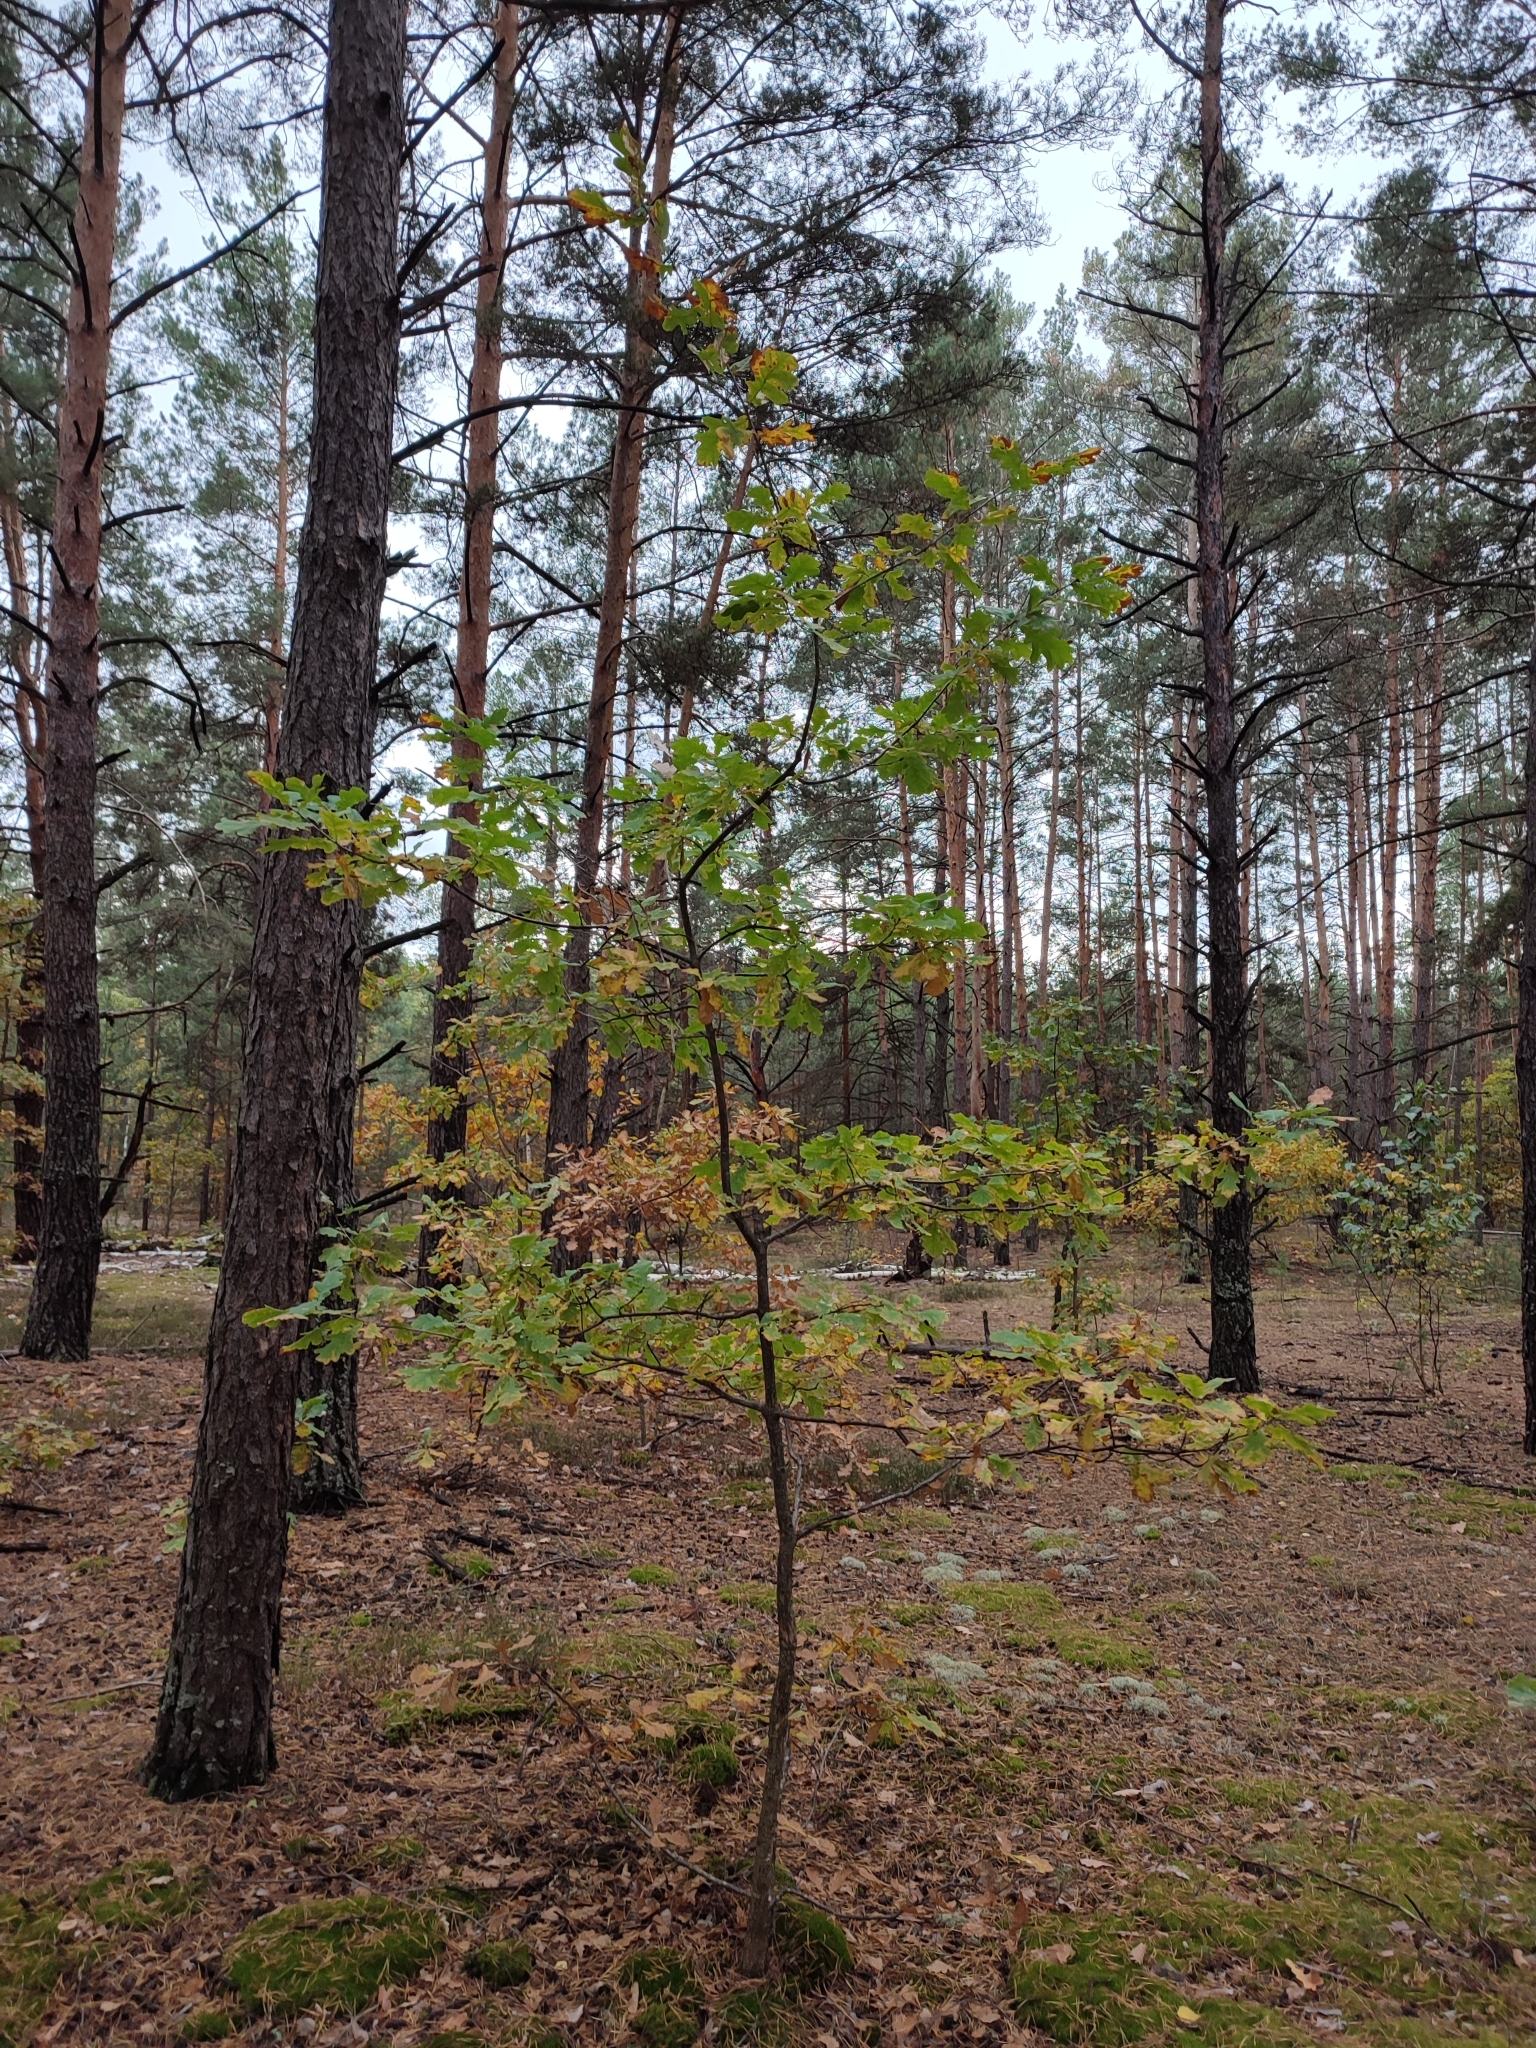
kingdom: Plantae
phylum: Tracheophyta
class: Magnoliopsida
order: Fagales
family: Fagaceae
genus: Quercus
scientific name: Quercus robur
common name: Pedunculate oak
